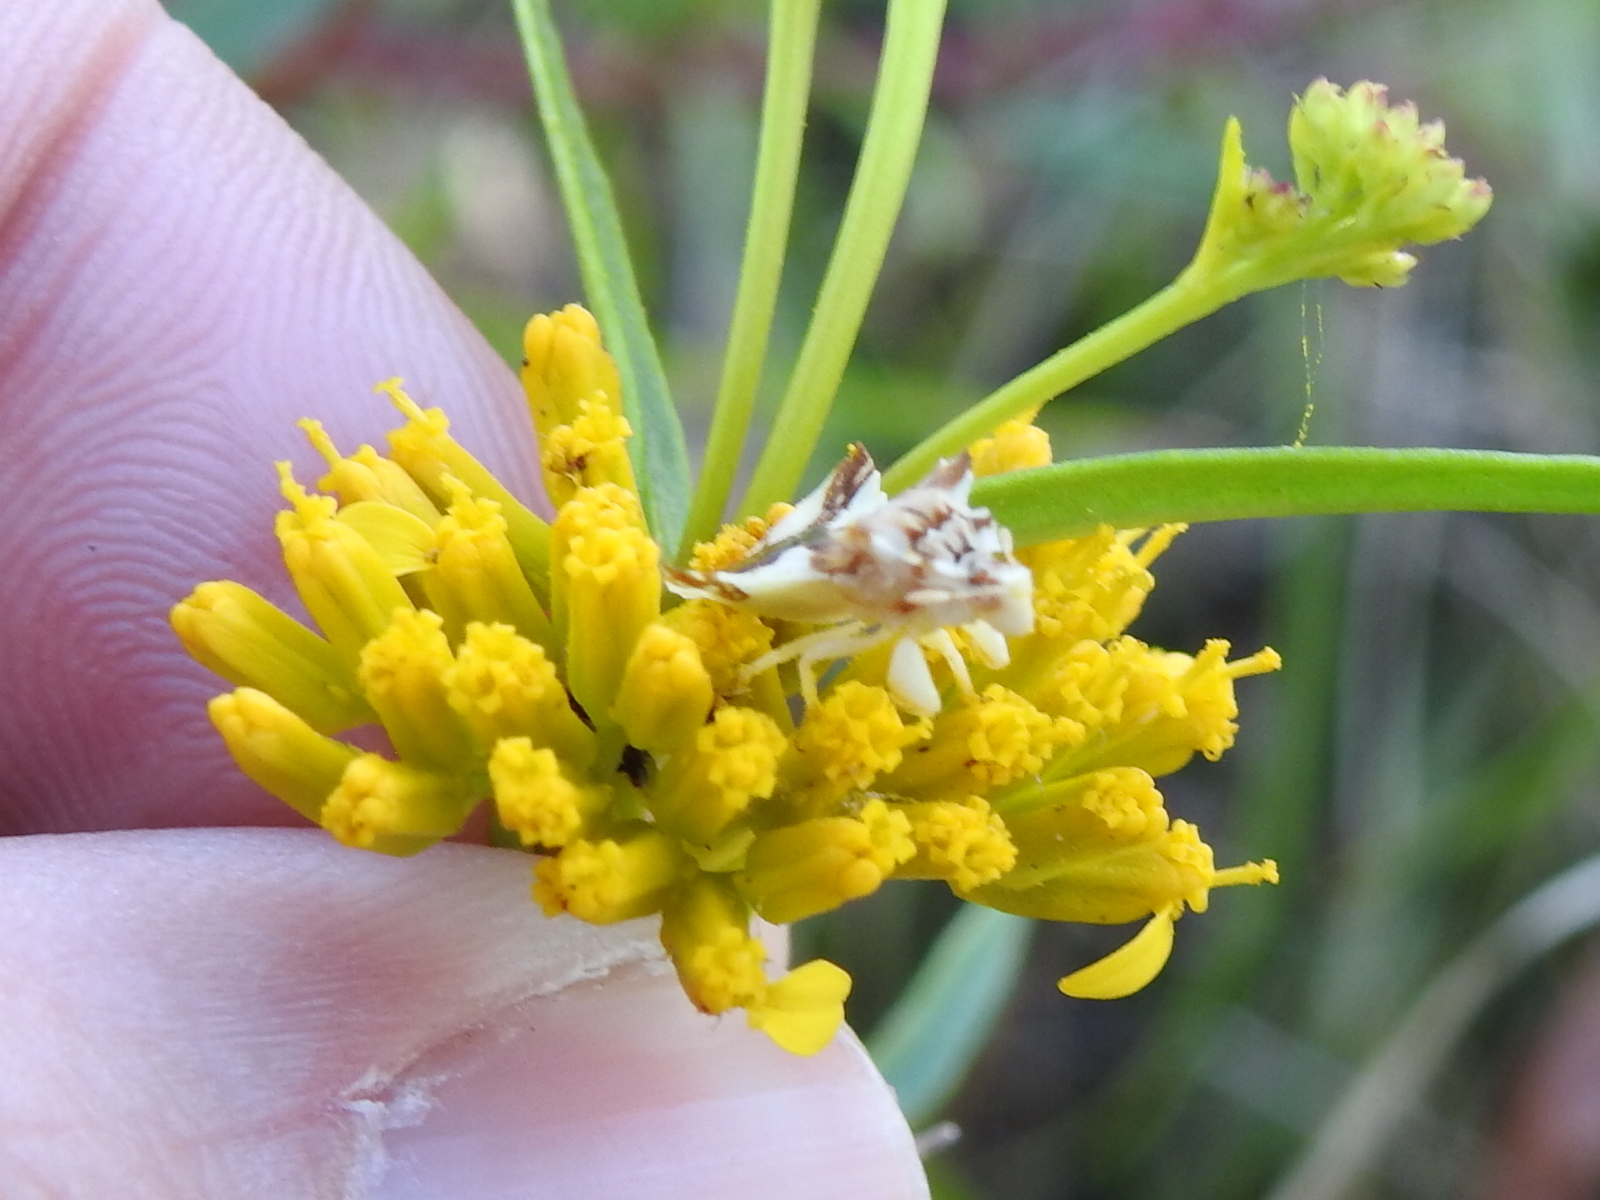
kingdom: Animalia
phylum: Arthropoda
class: Insecta
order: Hemiptera
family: Reduviidae
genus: Phymata
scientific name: Phymata
